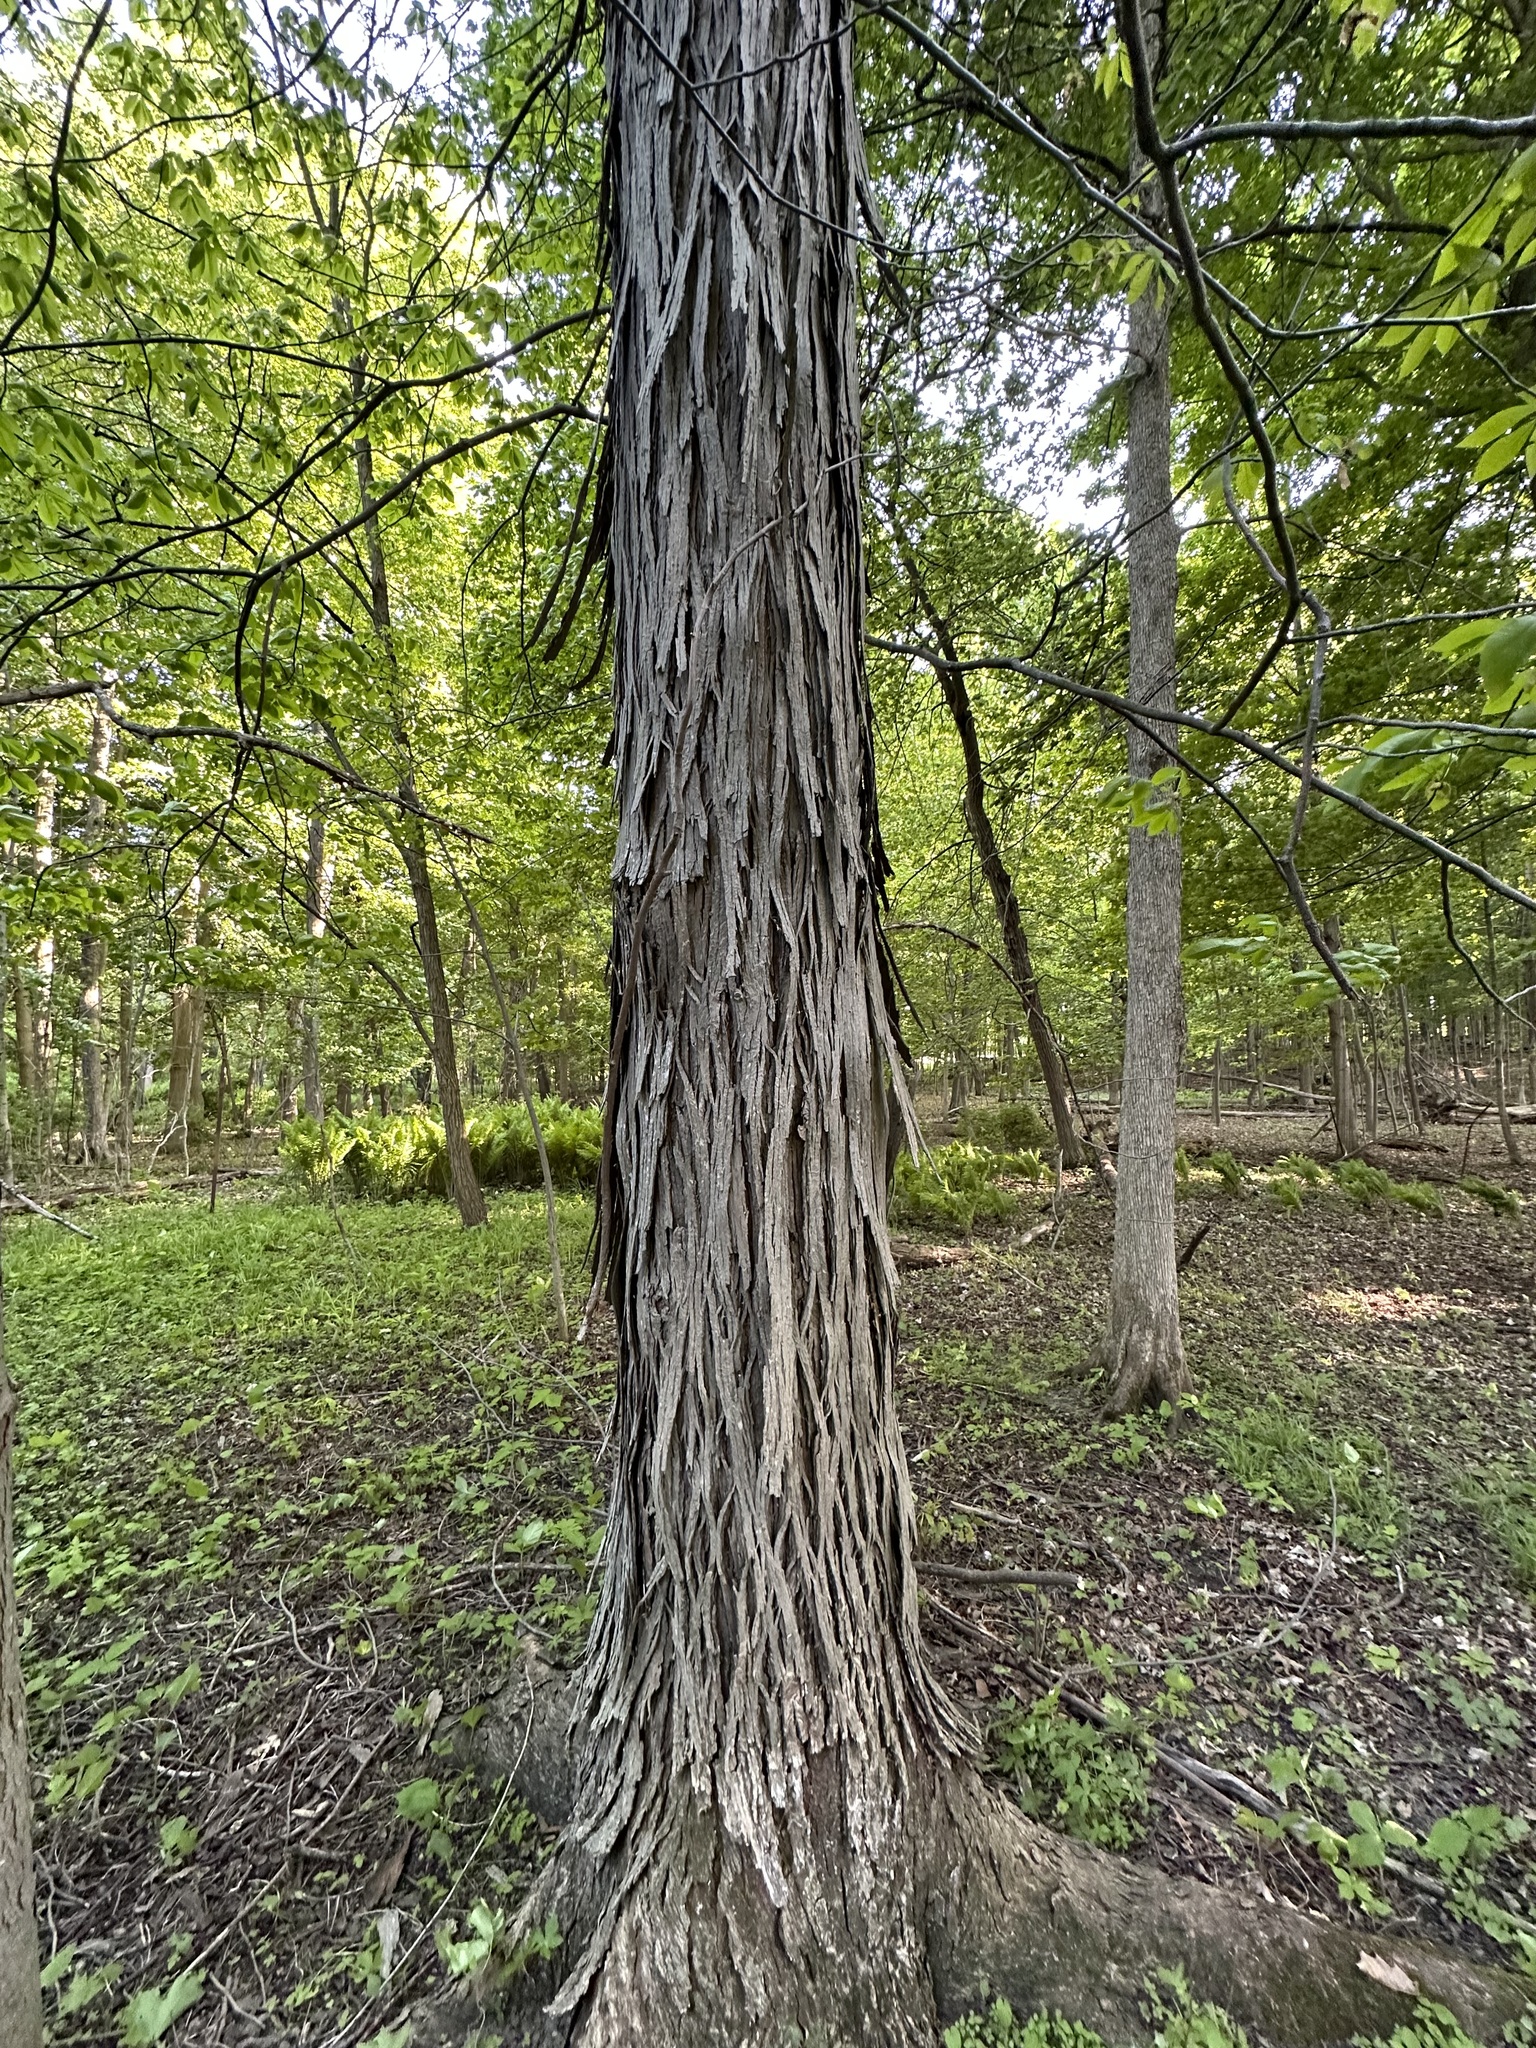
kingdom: Plantae
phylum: Tracheophyta
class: Magnoliopsida
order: Fagales
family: Juglandaceae
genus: Carya
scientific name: Carya ovata
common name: Shagbark hickory
